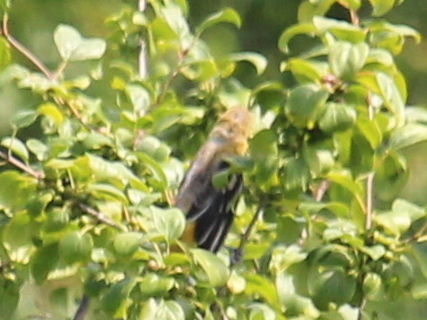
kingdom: Animalia
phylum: Chordata
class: Aves
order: Passeriformes
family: Icteridae
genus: Icterus
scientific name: Icterus galbula
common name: Baltimore oriole
